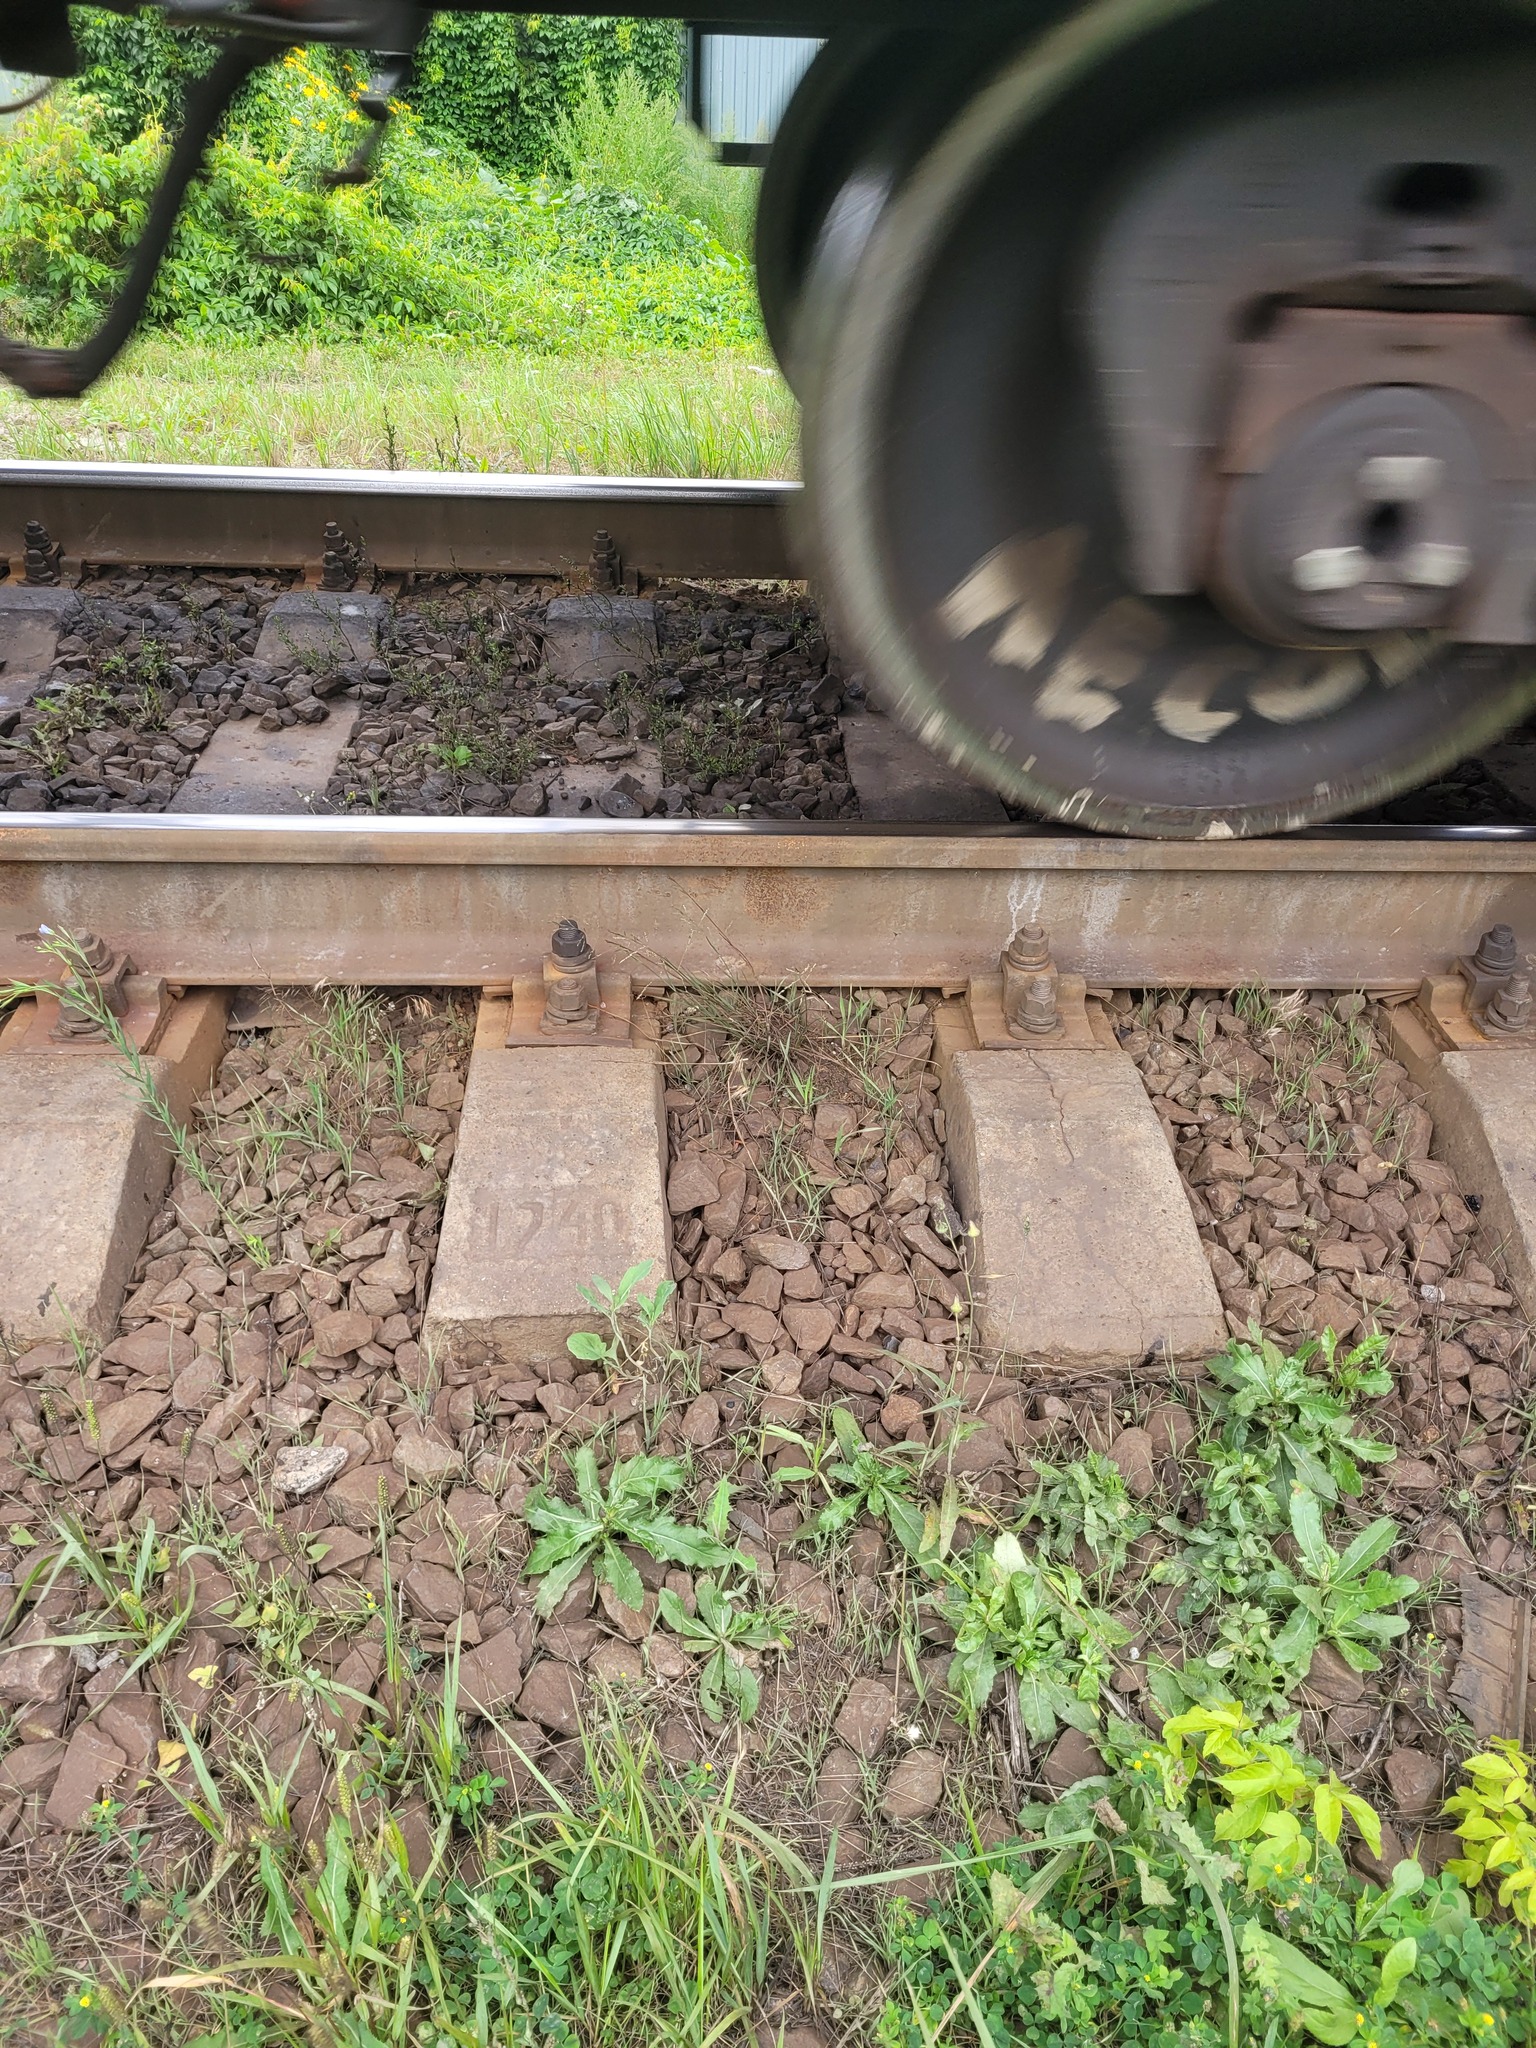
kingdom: Plantae
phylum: Tracheophyta
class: Liliopsida
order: Poales
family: Poaceae
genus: Puccinellia
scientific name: Puccinellia distans
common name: Weeping alkaligrass
